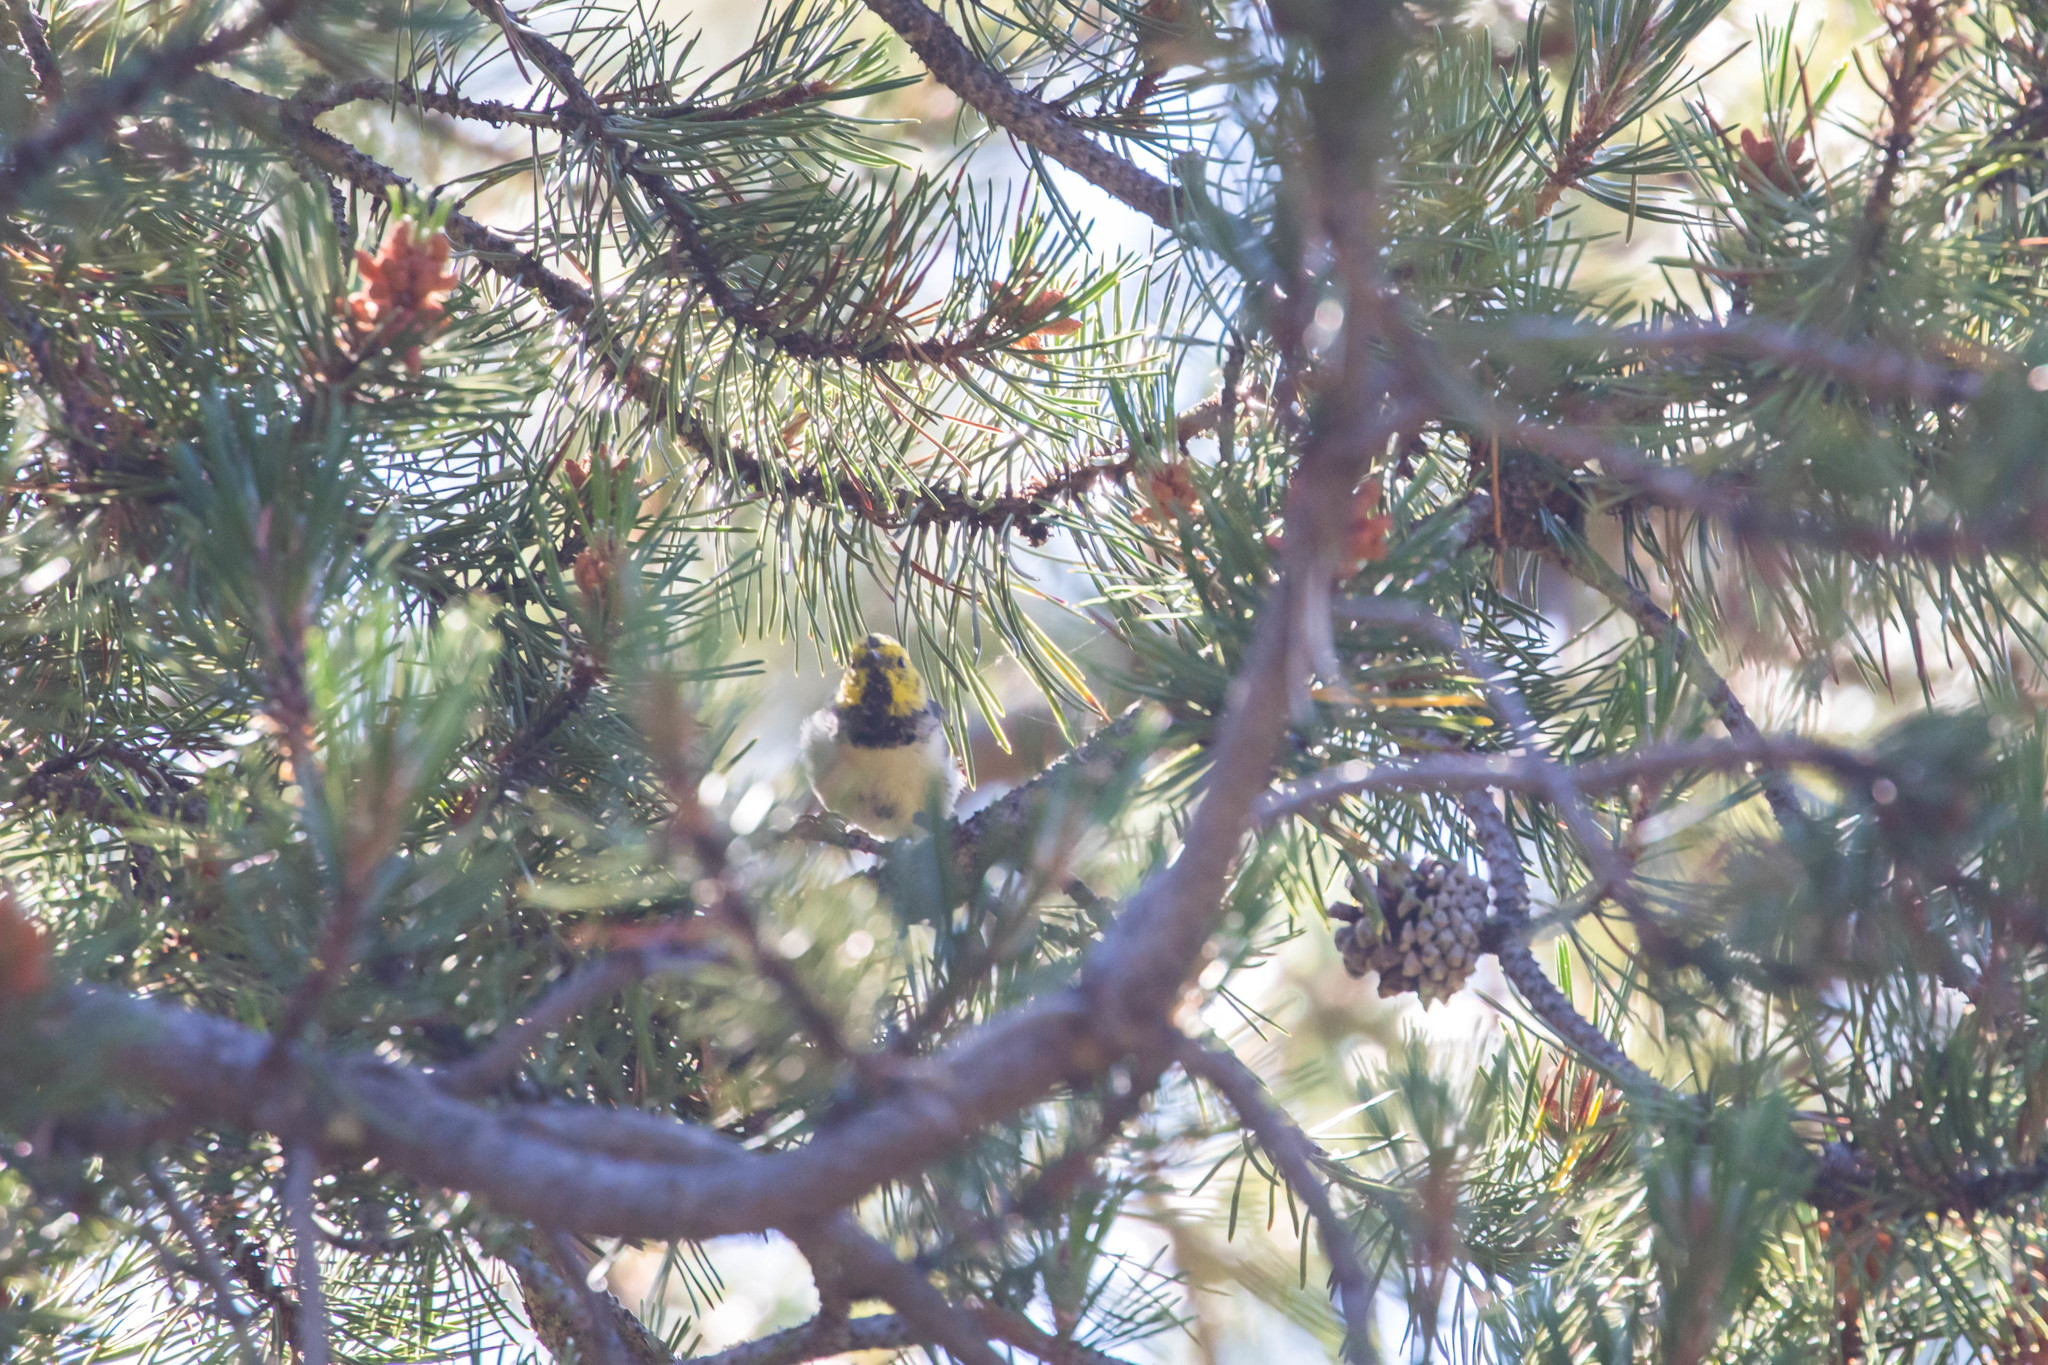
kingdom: Animalia
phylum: Chordata
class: Aves
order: Passeriformes
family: Parulidae
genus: Setophaga
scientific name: Setophaga occidentalis
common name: Hermit warbler
